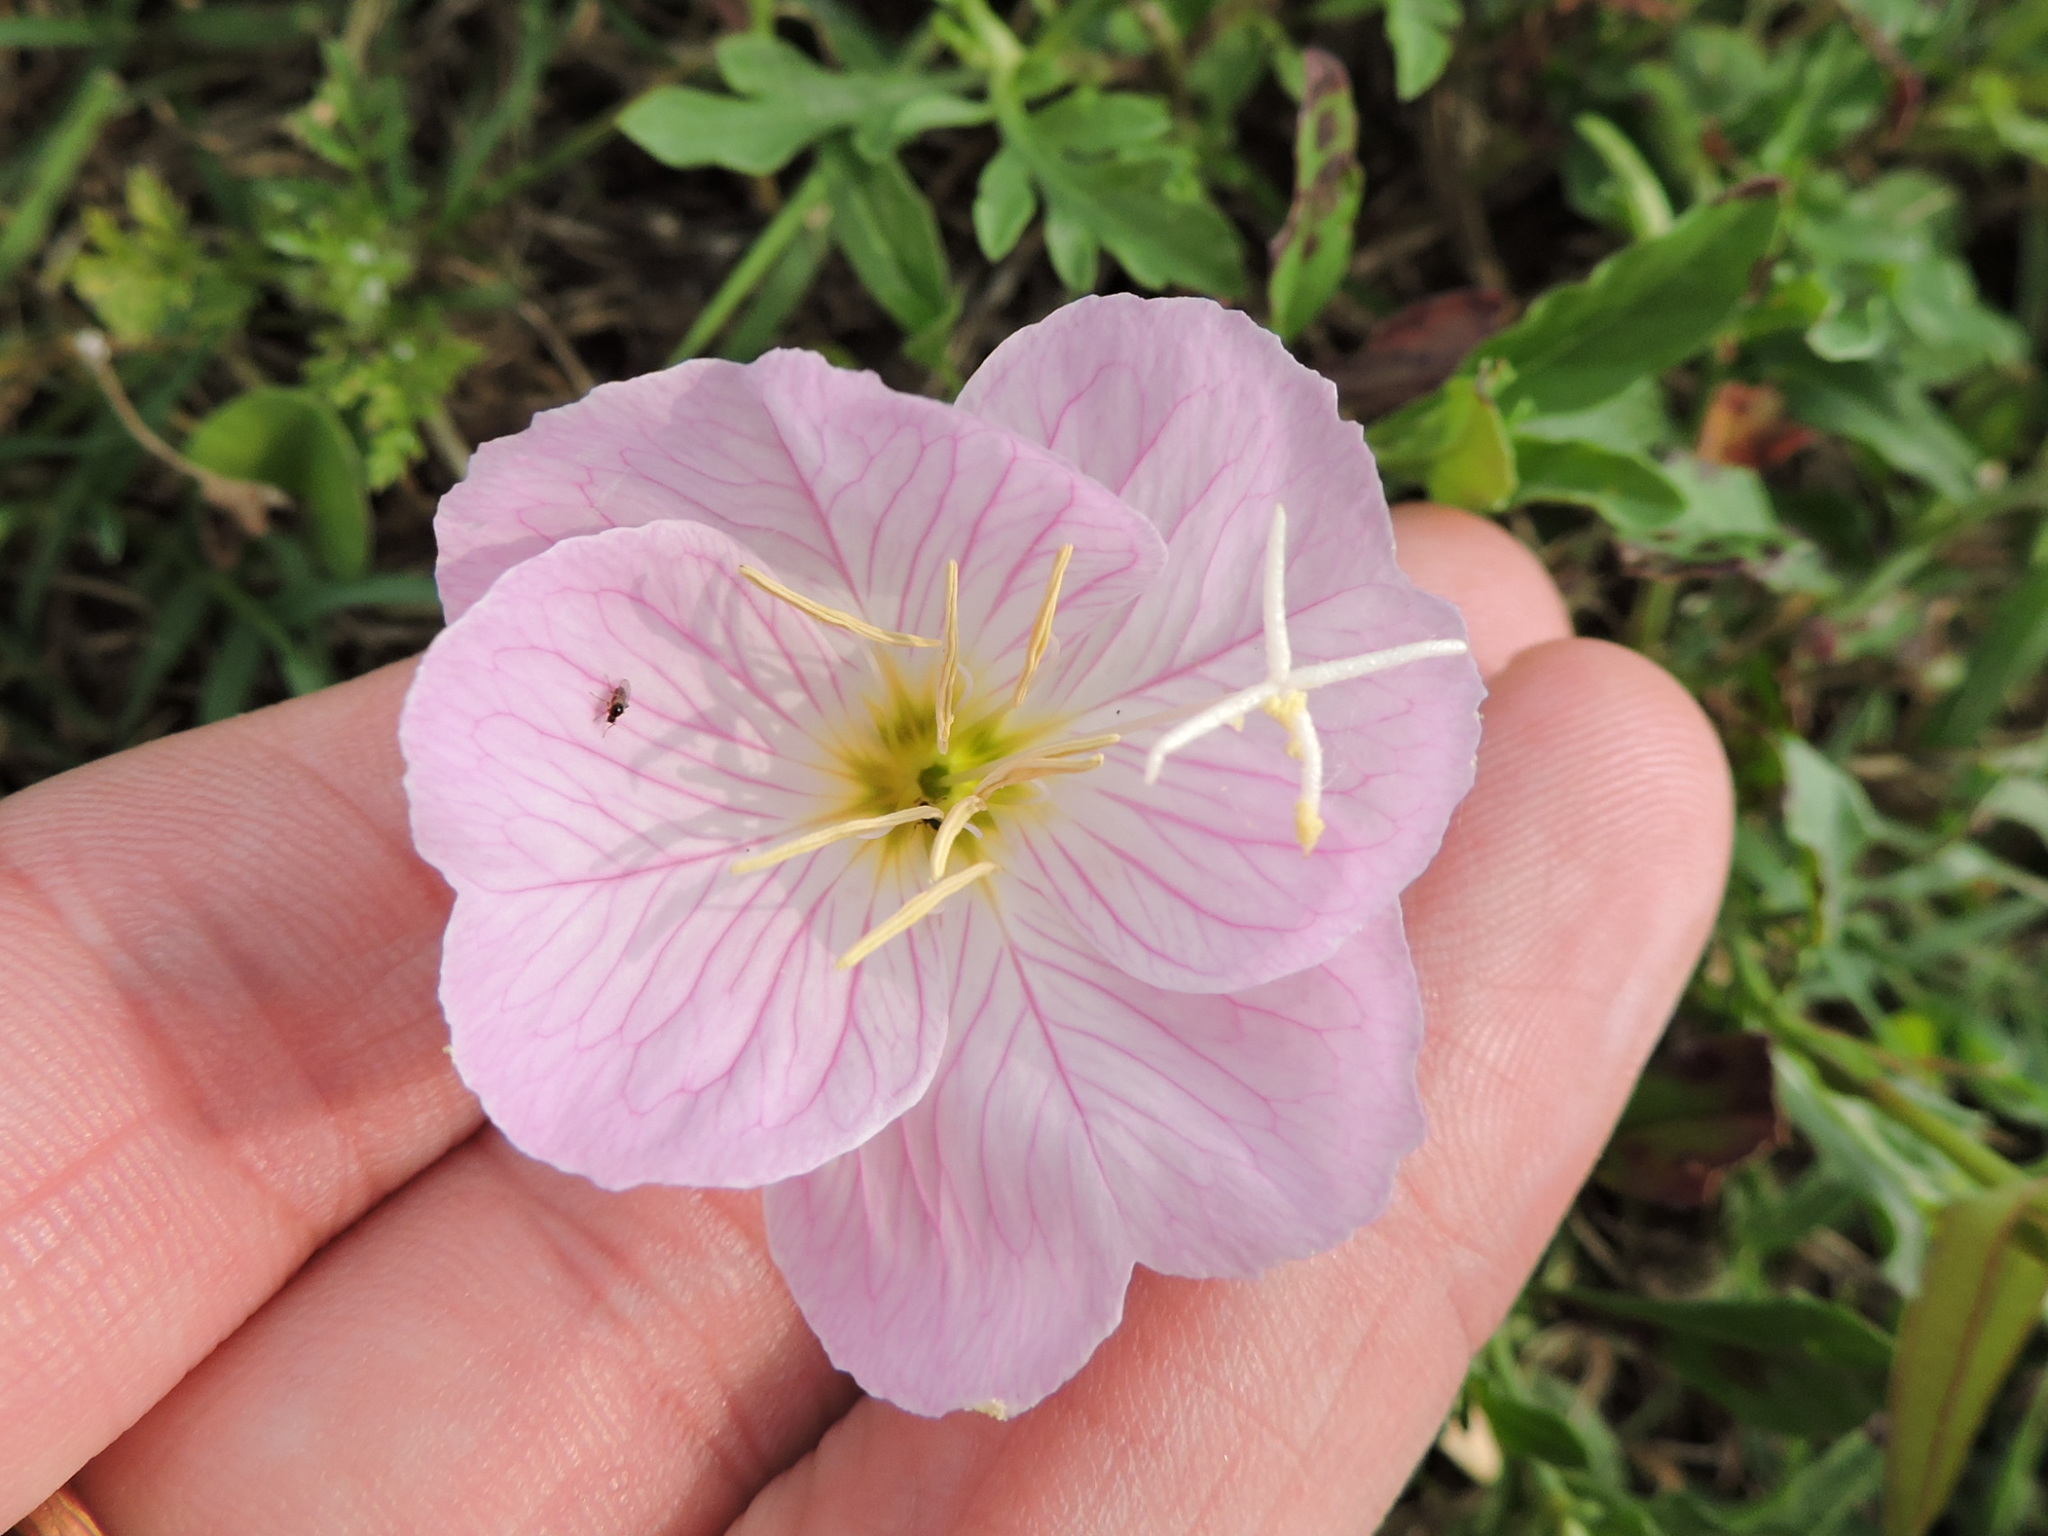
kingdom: Plantae
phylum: Tracheophyta
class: Magnoliopsida
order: Myrtales
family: Onagraceae
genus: Oenothera
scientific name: Oenothera speciosa
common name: White evening-primrose
